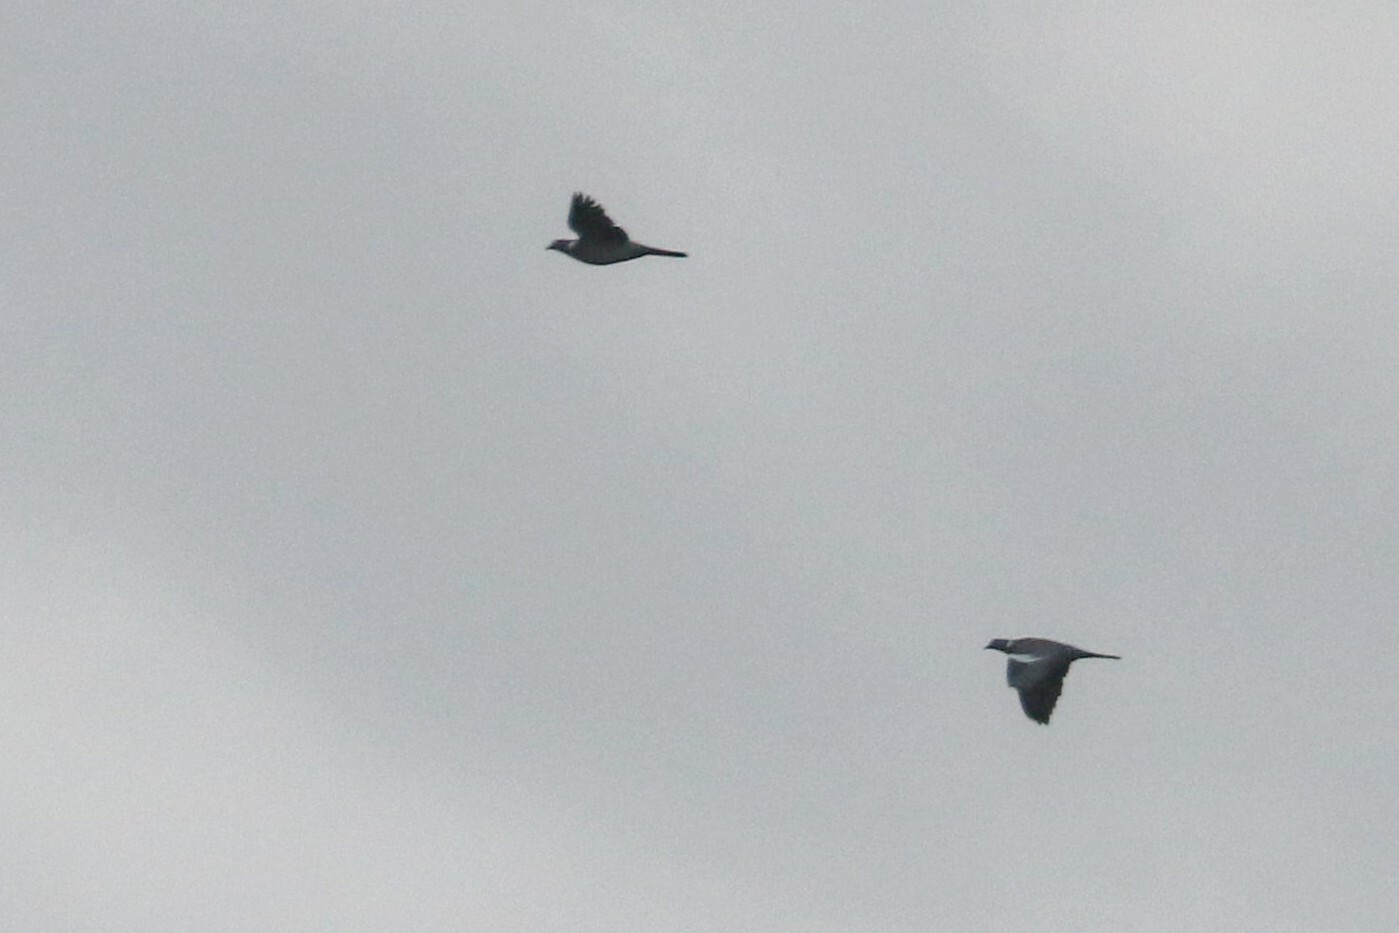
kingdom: Animalia
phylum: Chordata
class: Aves
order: Columbiformes
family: Columbidae
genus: Columba
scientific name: Columba palumbus
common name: Common wood pigeon
